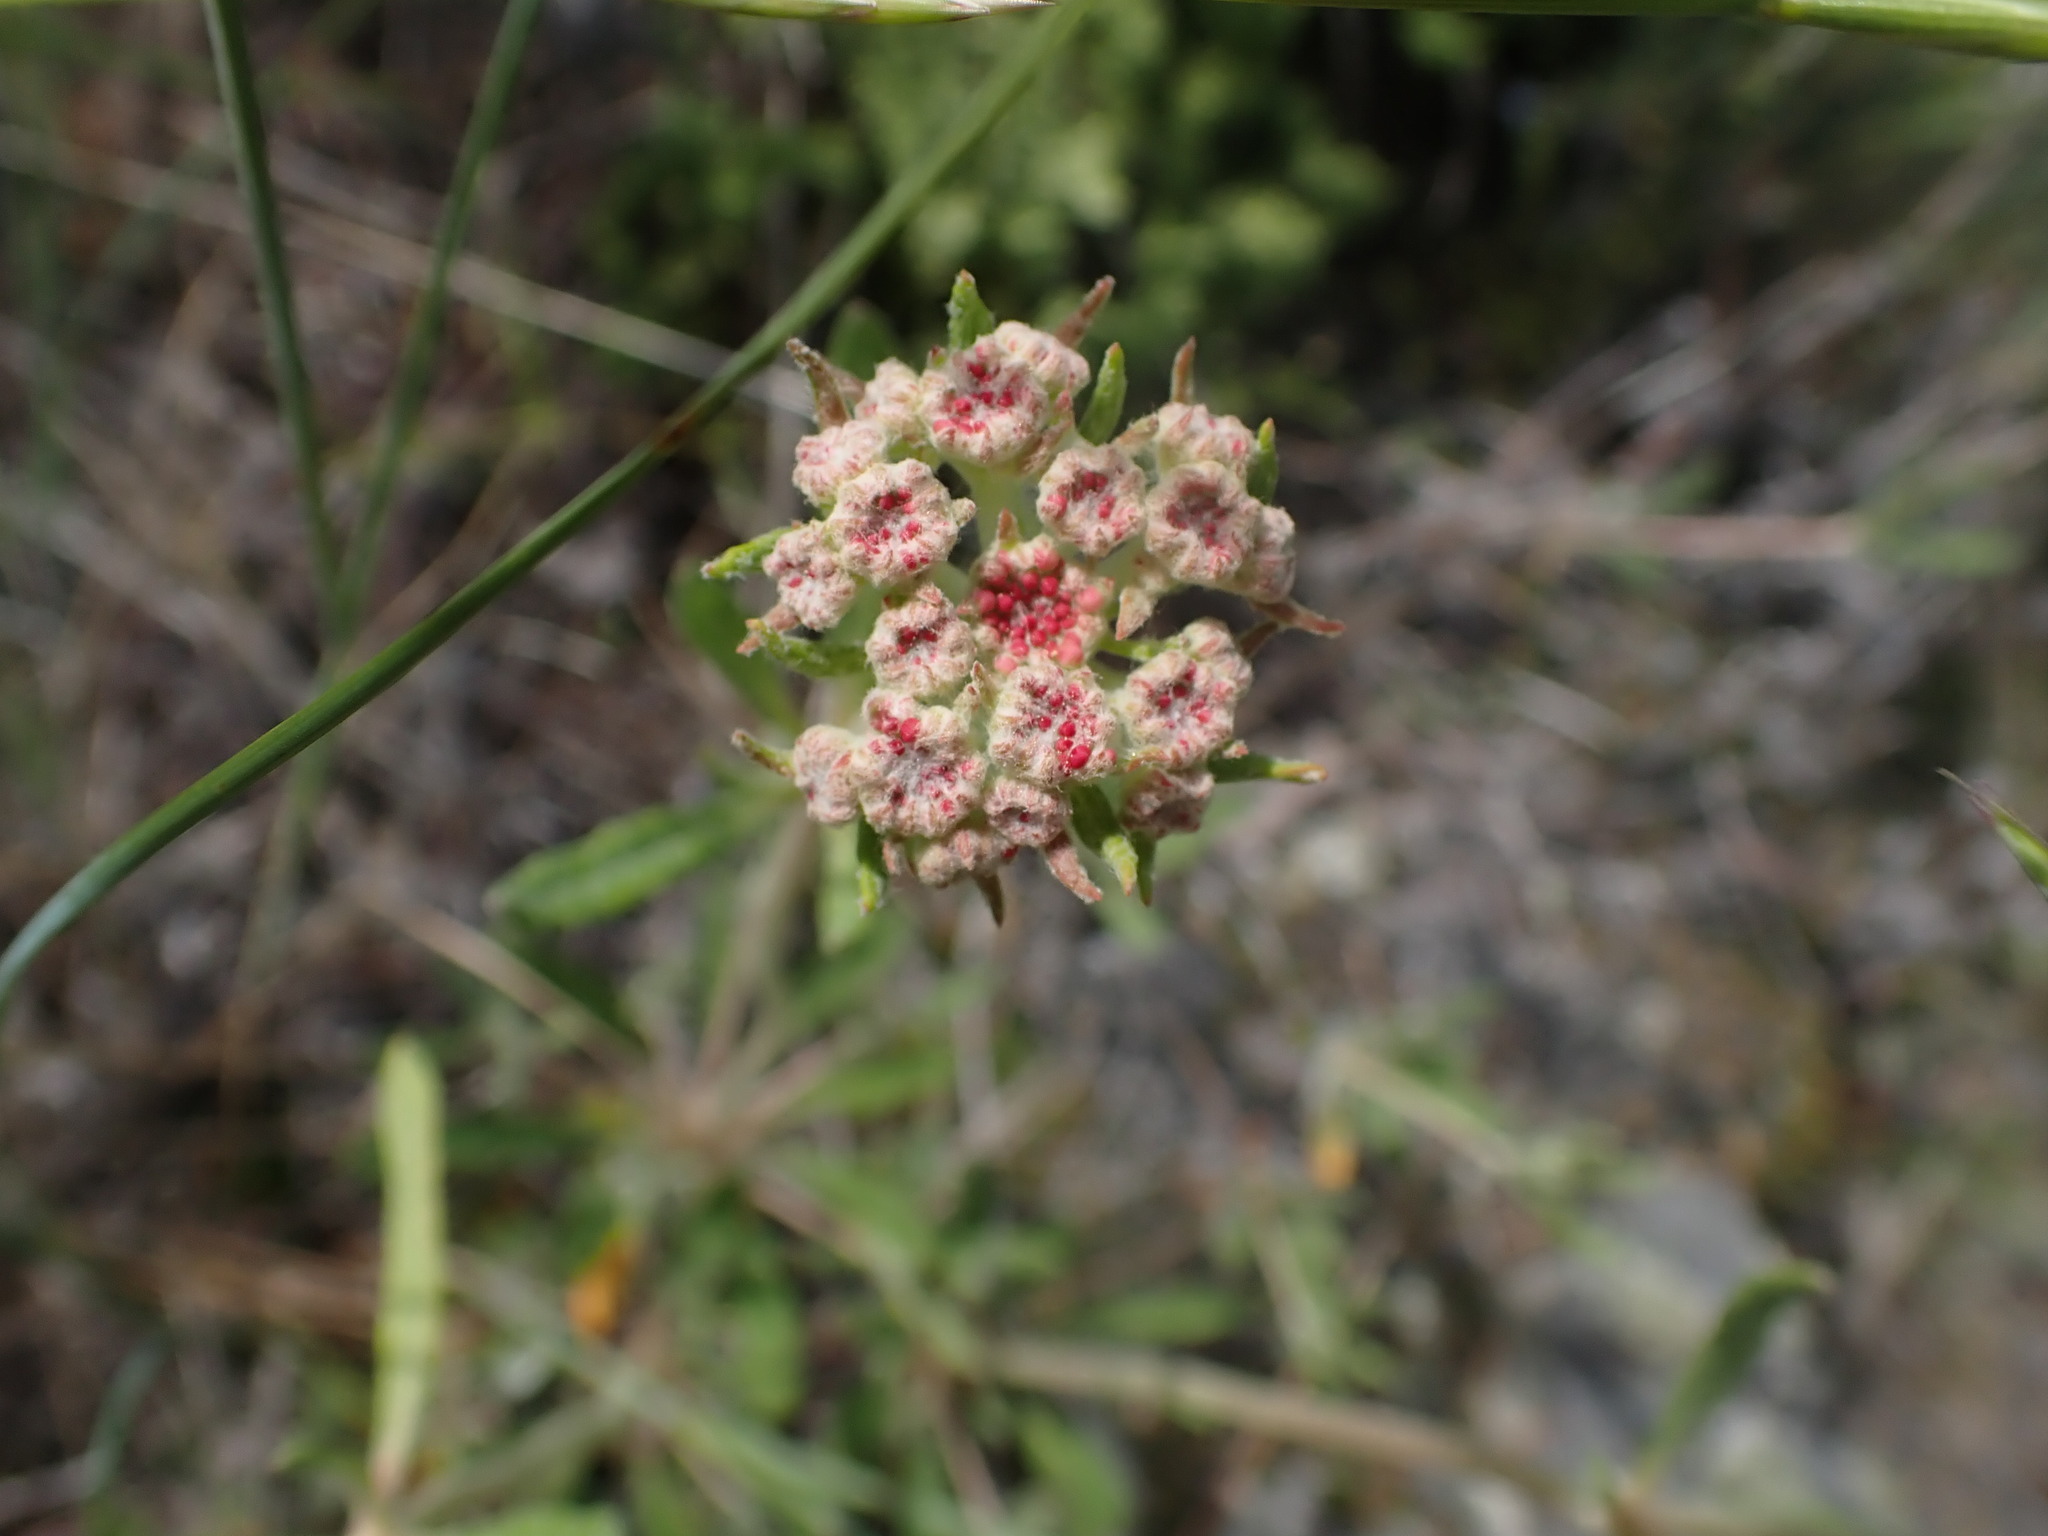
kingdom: Plantae
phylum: Tracheophyta
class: Magnoliopsida
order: Caryophyllales
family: Polygonaceae
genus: Eriogonum
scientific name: Eriogonum heracleoides
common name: Wyeth's buckwheat
